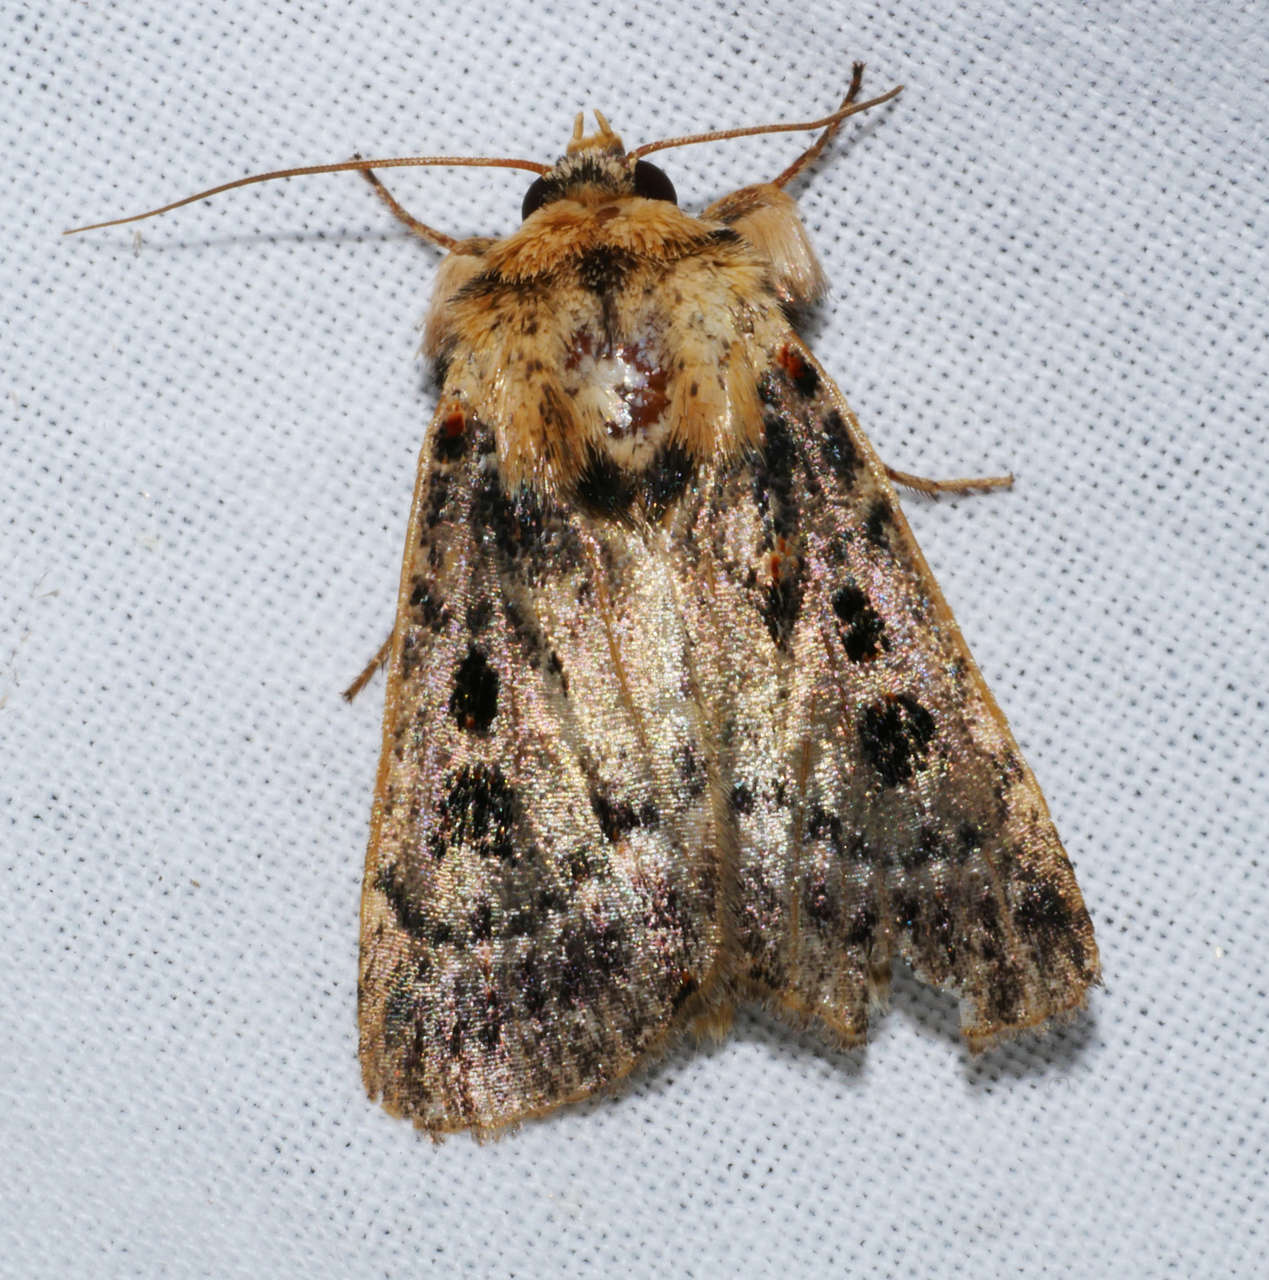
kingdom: Animalia
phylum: Arthropoda
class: Insecta
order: Lepidoptera
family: Noctuidae
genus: Proteuxoa
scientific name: Proteuxoa sanguinipuncta
